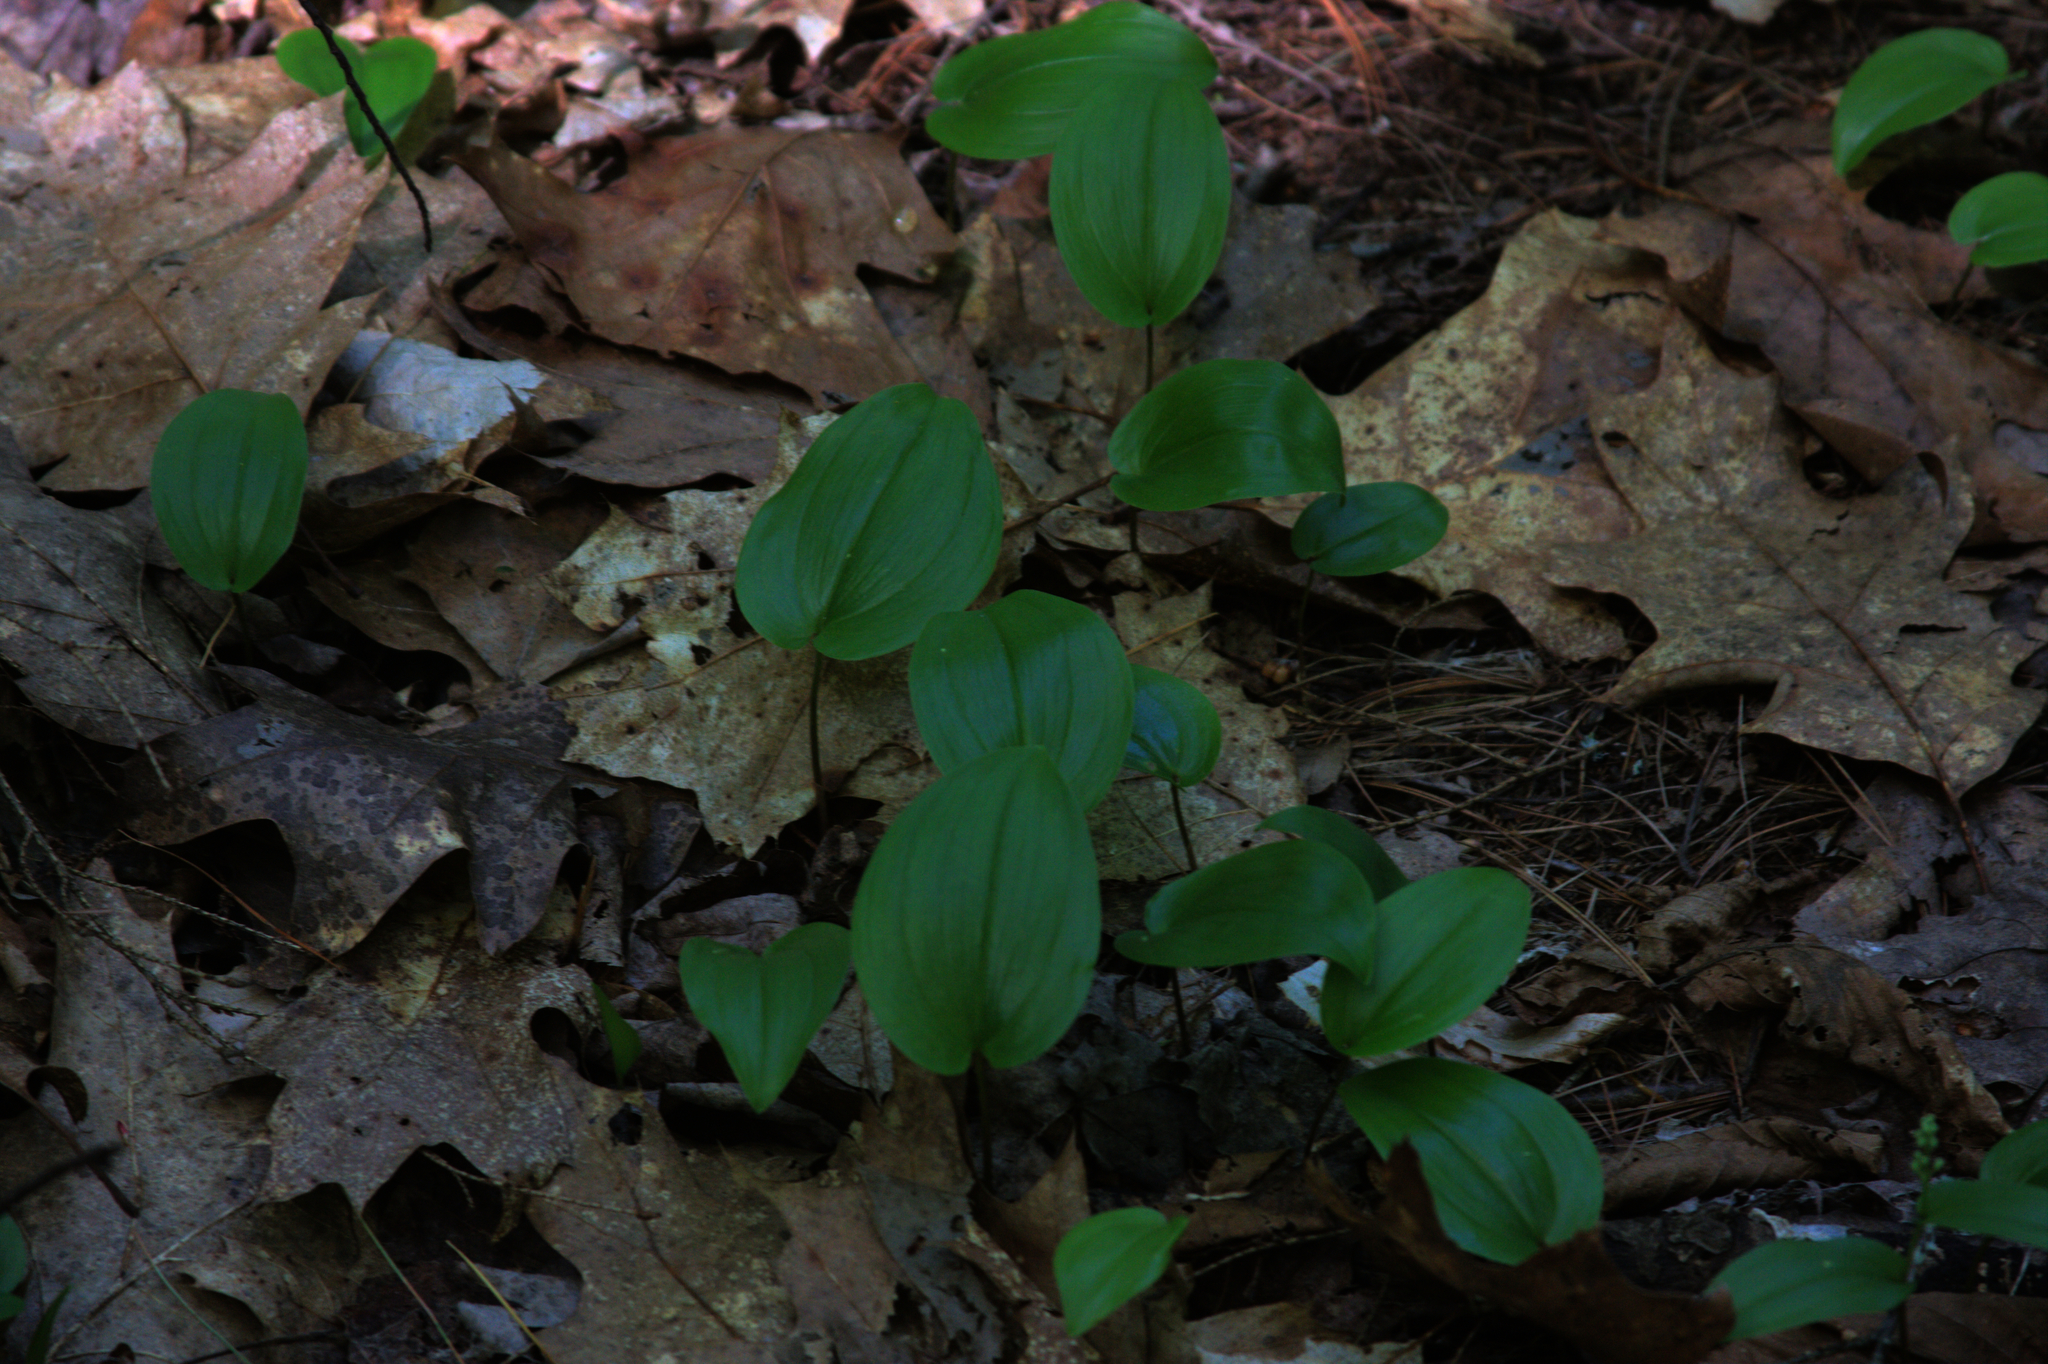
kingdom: Plantae
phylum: Tracheophyta
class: Liliopsida
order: Asparagales
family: Asparagaceae
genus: Maianthemum
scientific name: Maianthemum canadense
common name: False lily-of-the-valley
